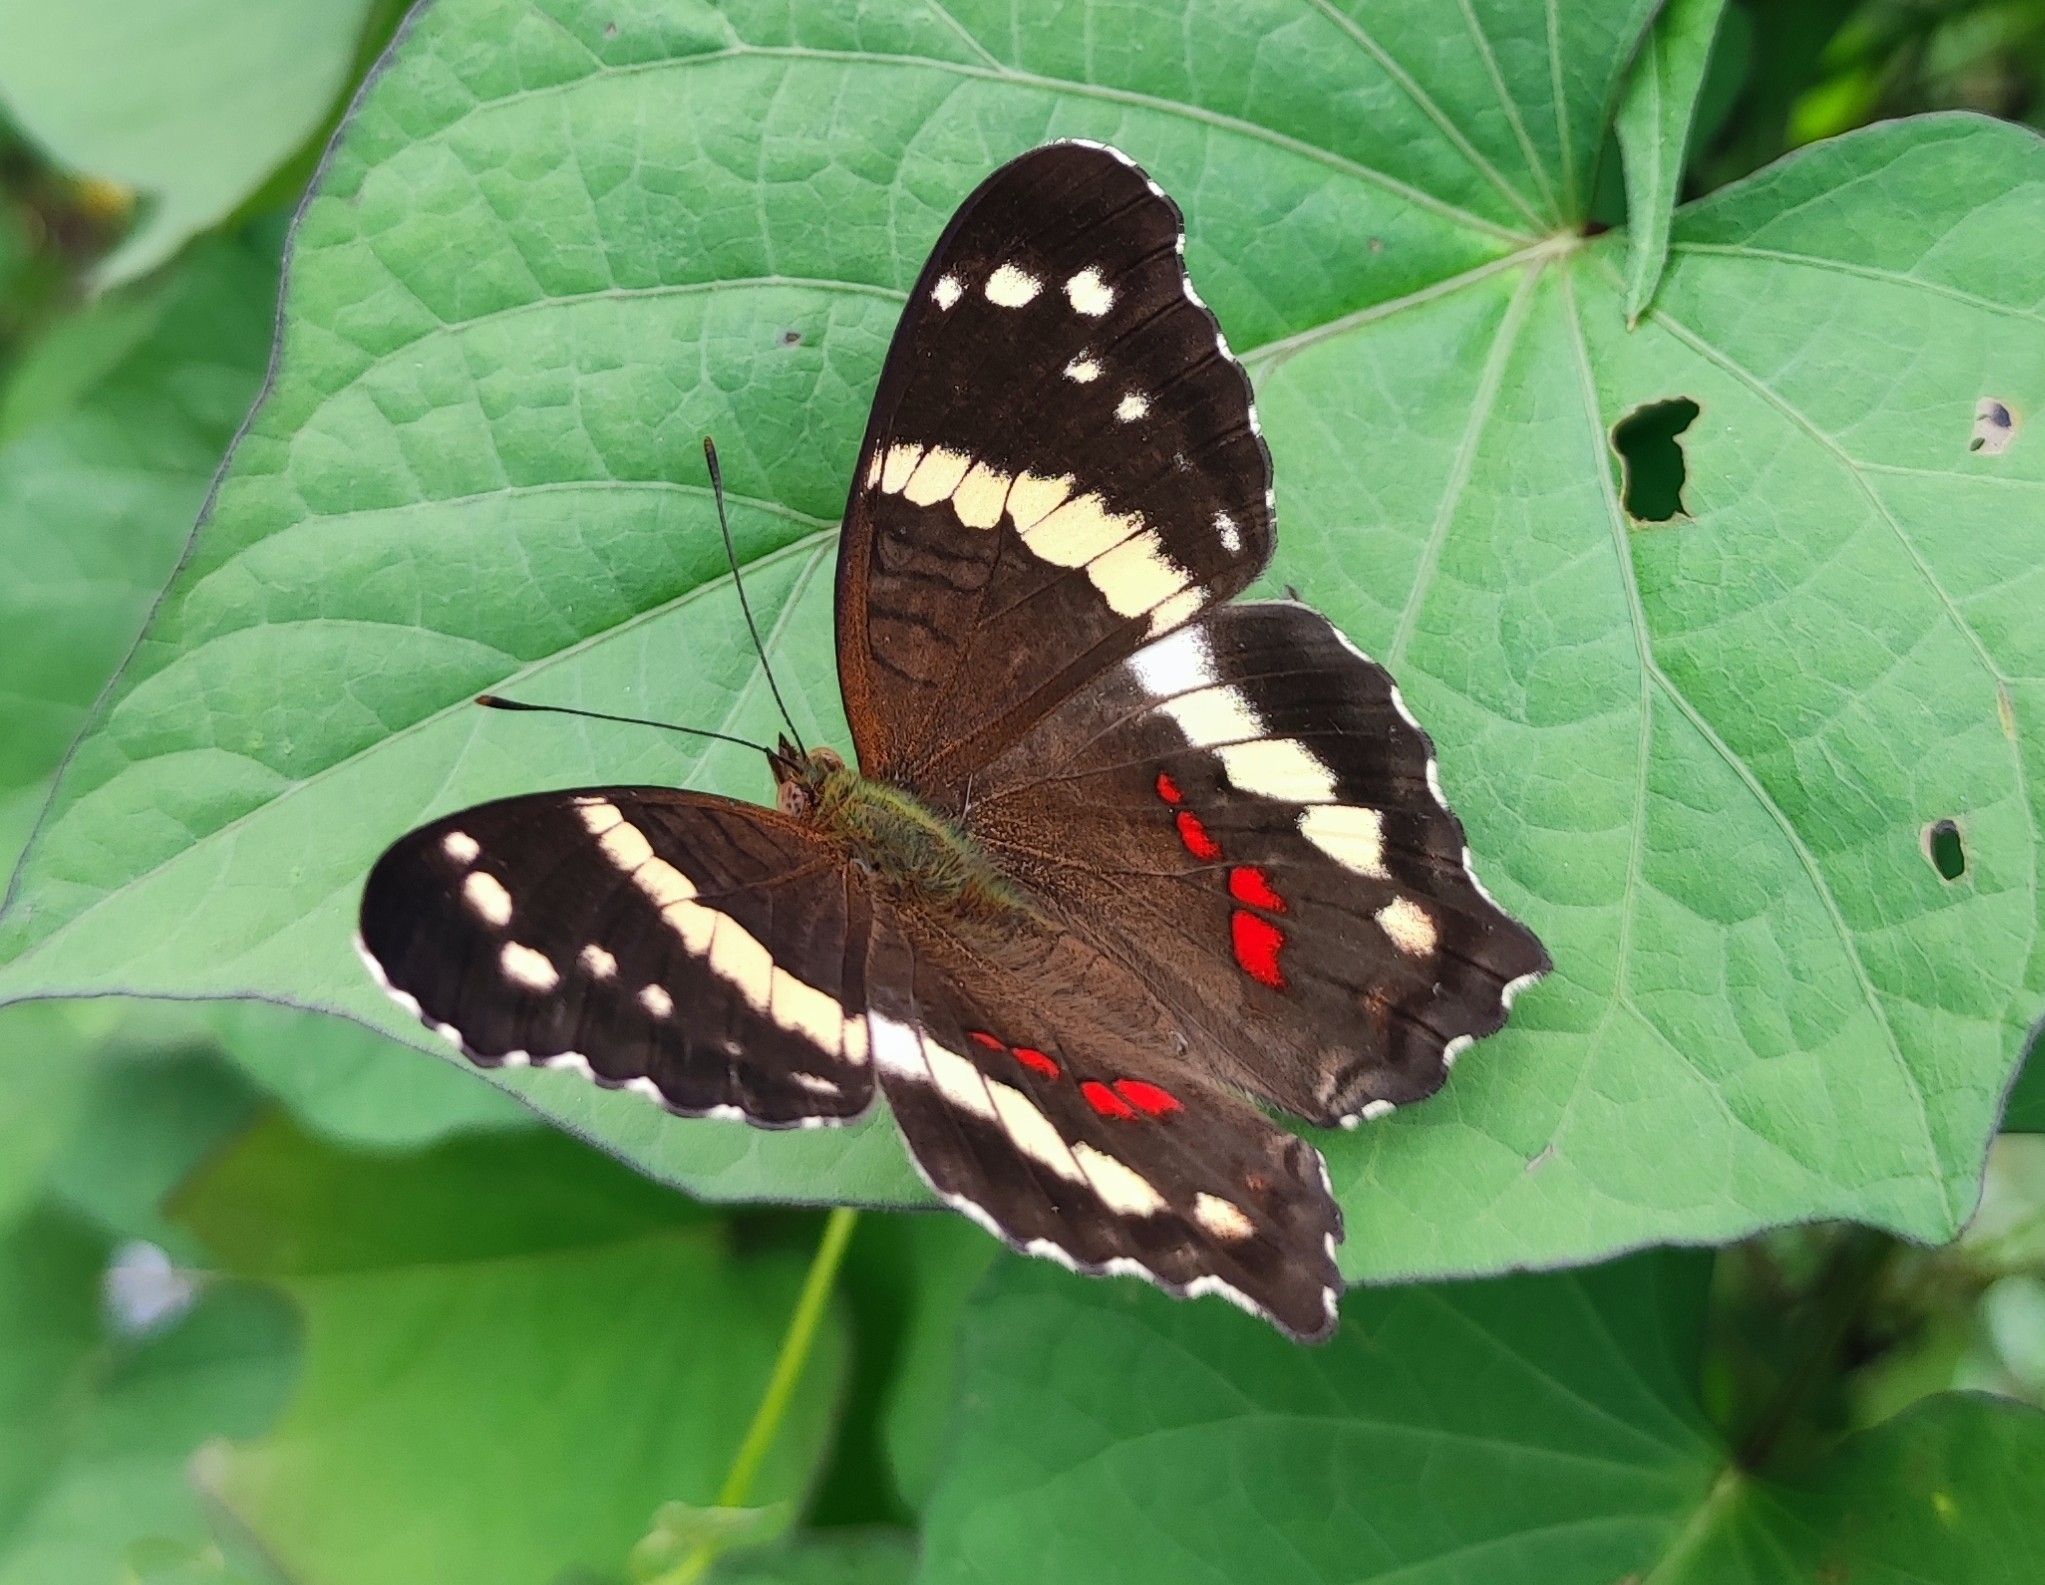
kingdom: Animalia
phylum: Arthropoda
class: Insecta
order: Lepidoptera
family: Nymphalidae
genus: Anartia
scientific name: Anartia fatima
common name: Banded peacock
